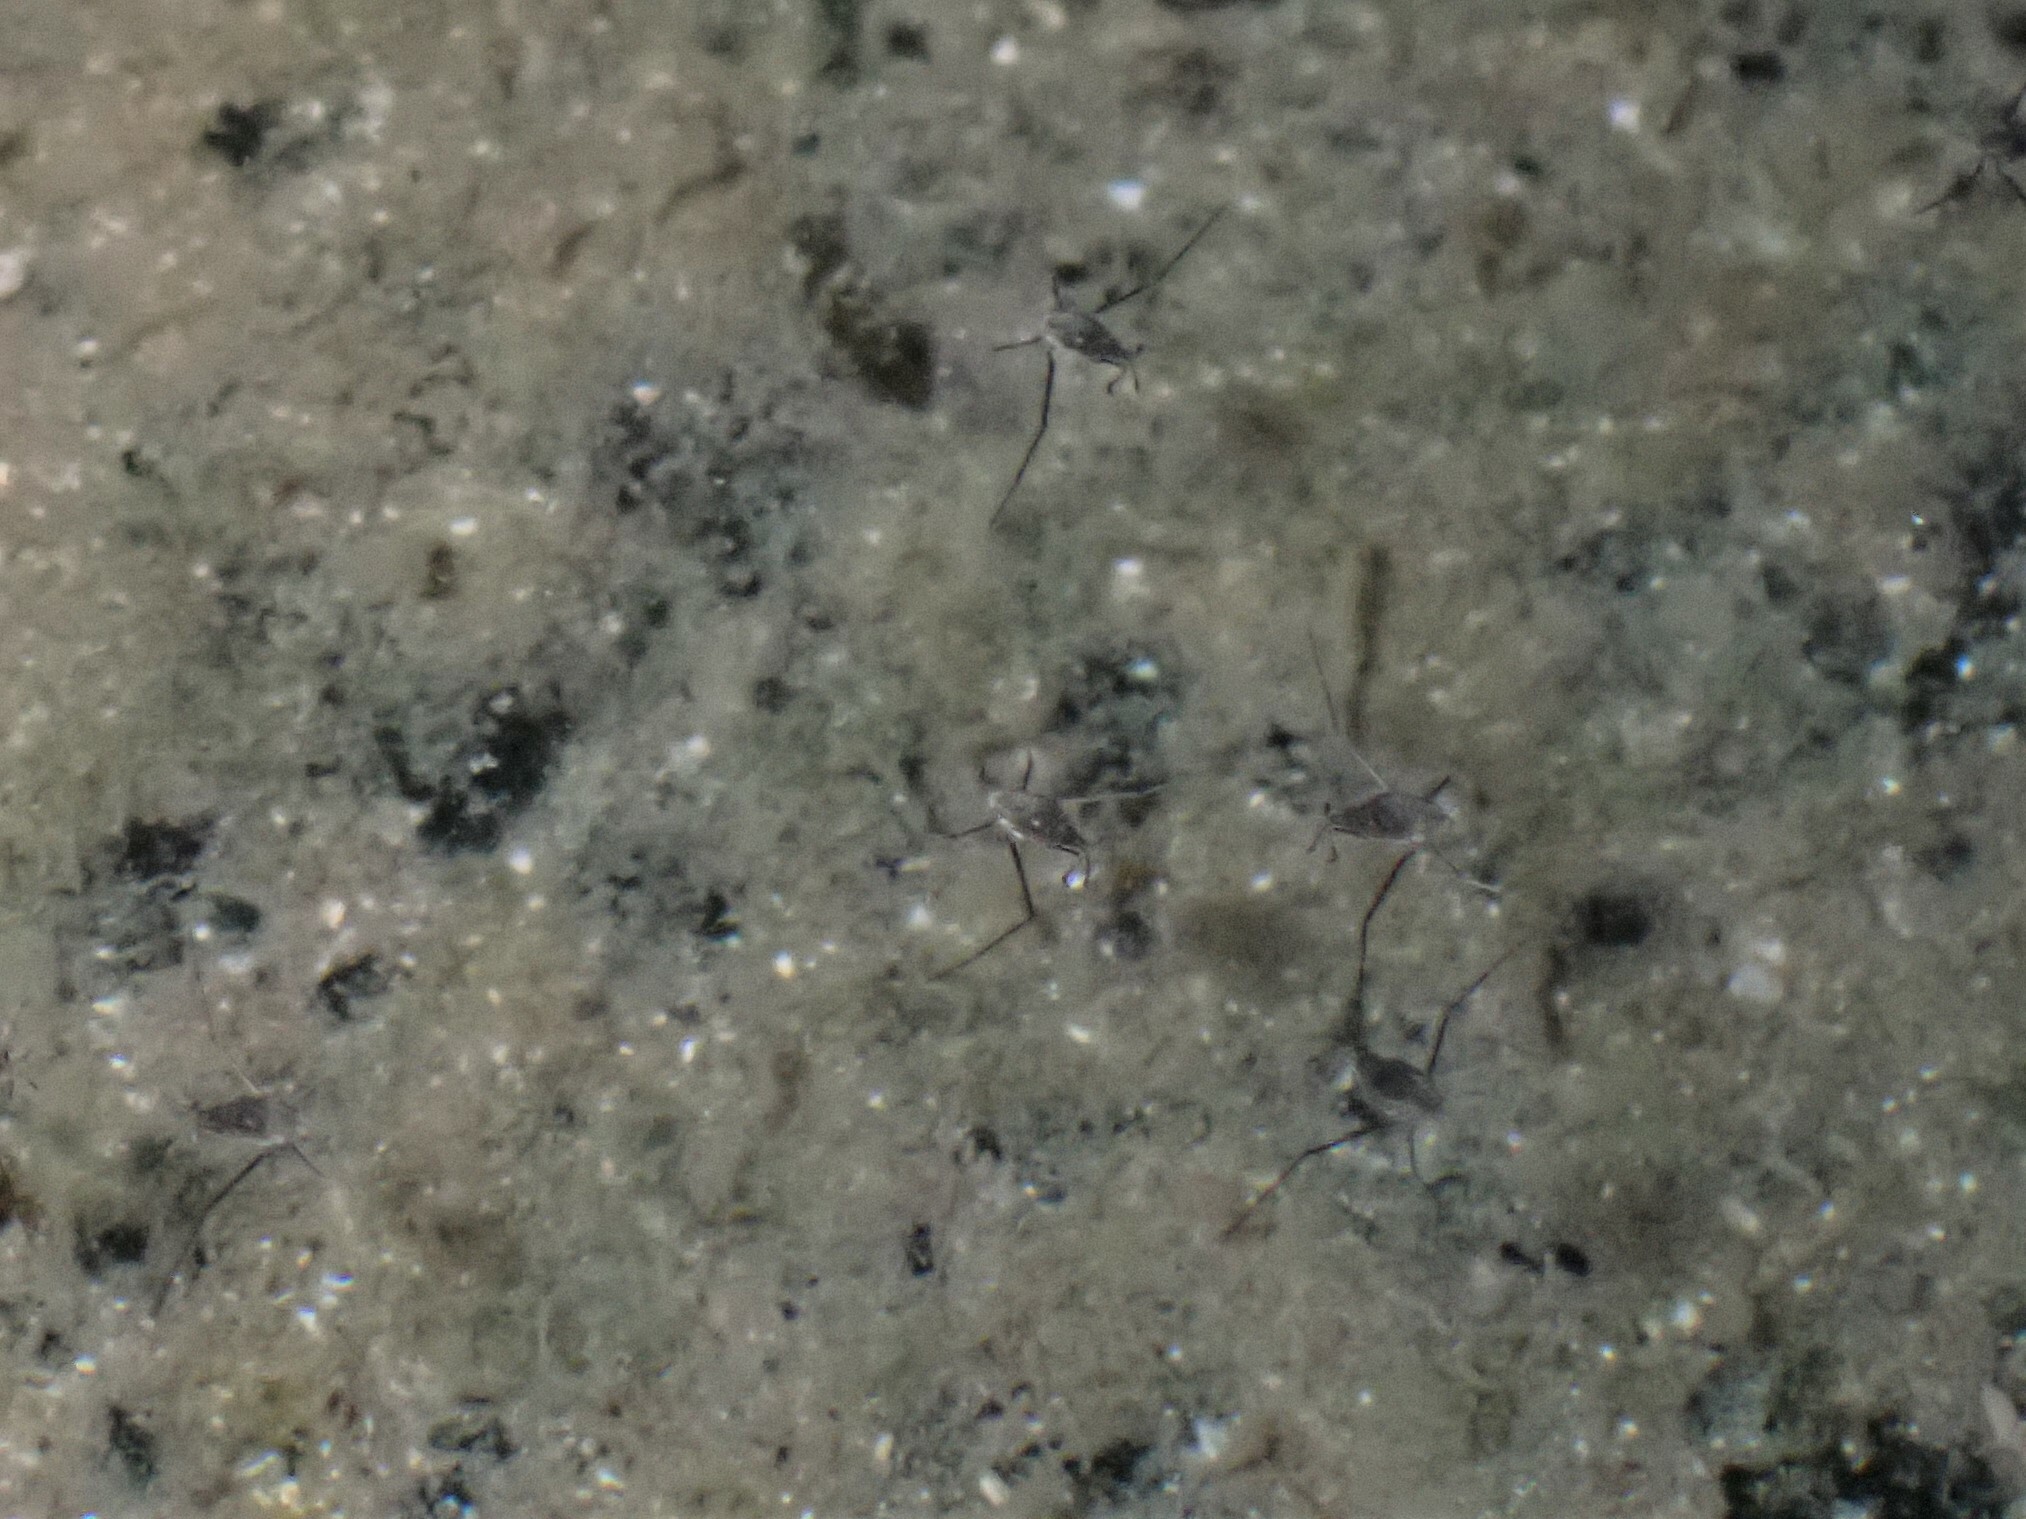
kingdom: Animalia
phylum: Arthropoda
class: Insecta
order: Hemiptera
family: Veliidae
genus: Halovelia
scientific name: Halovelia
